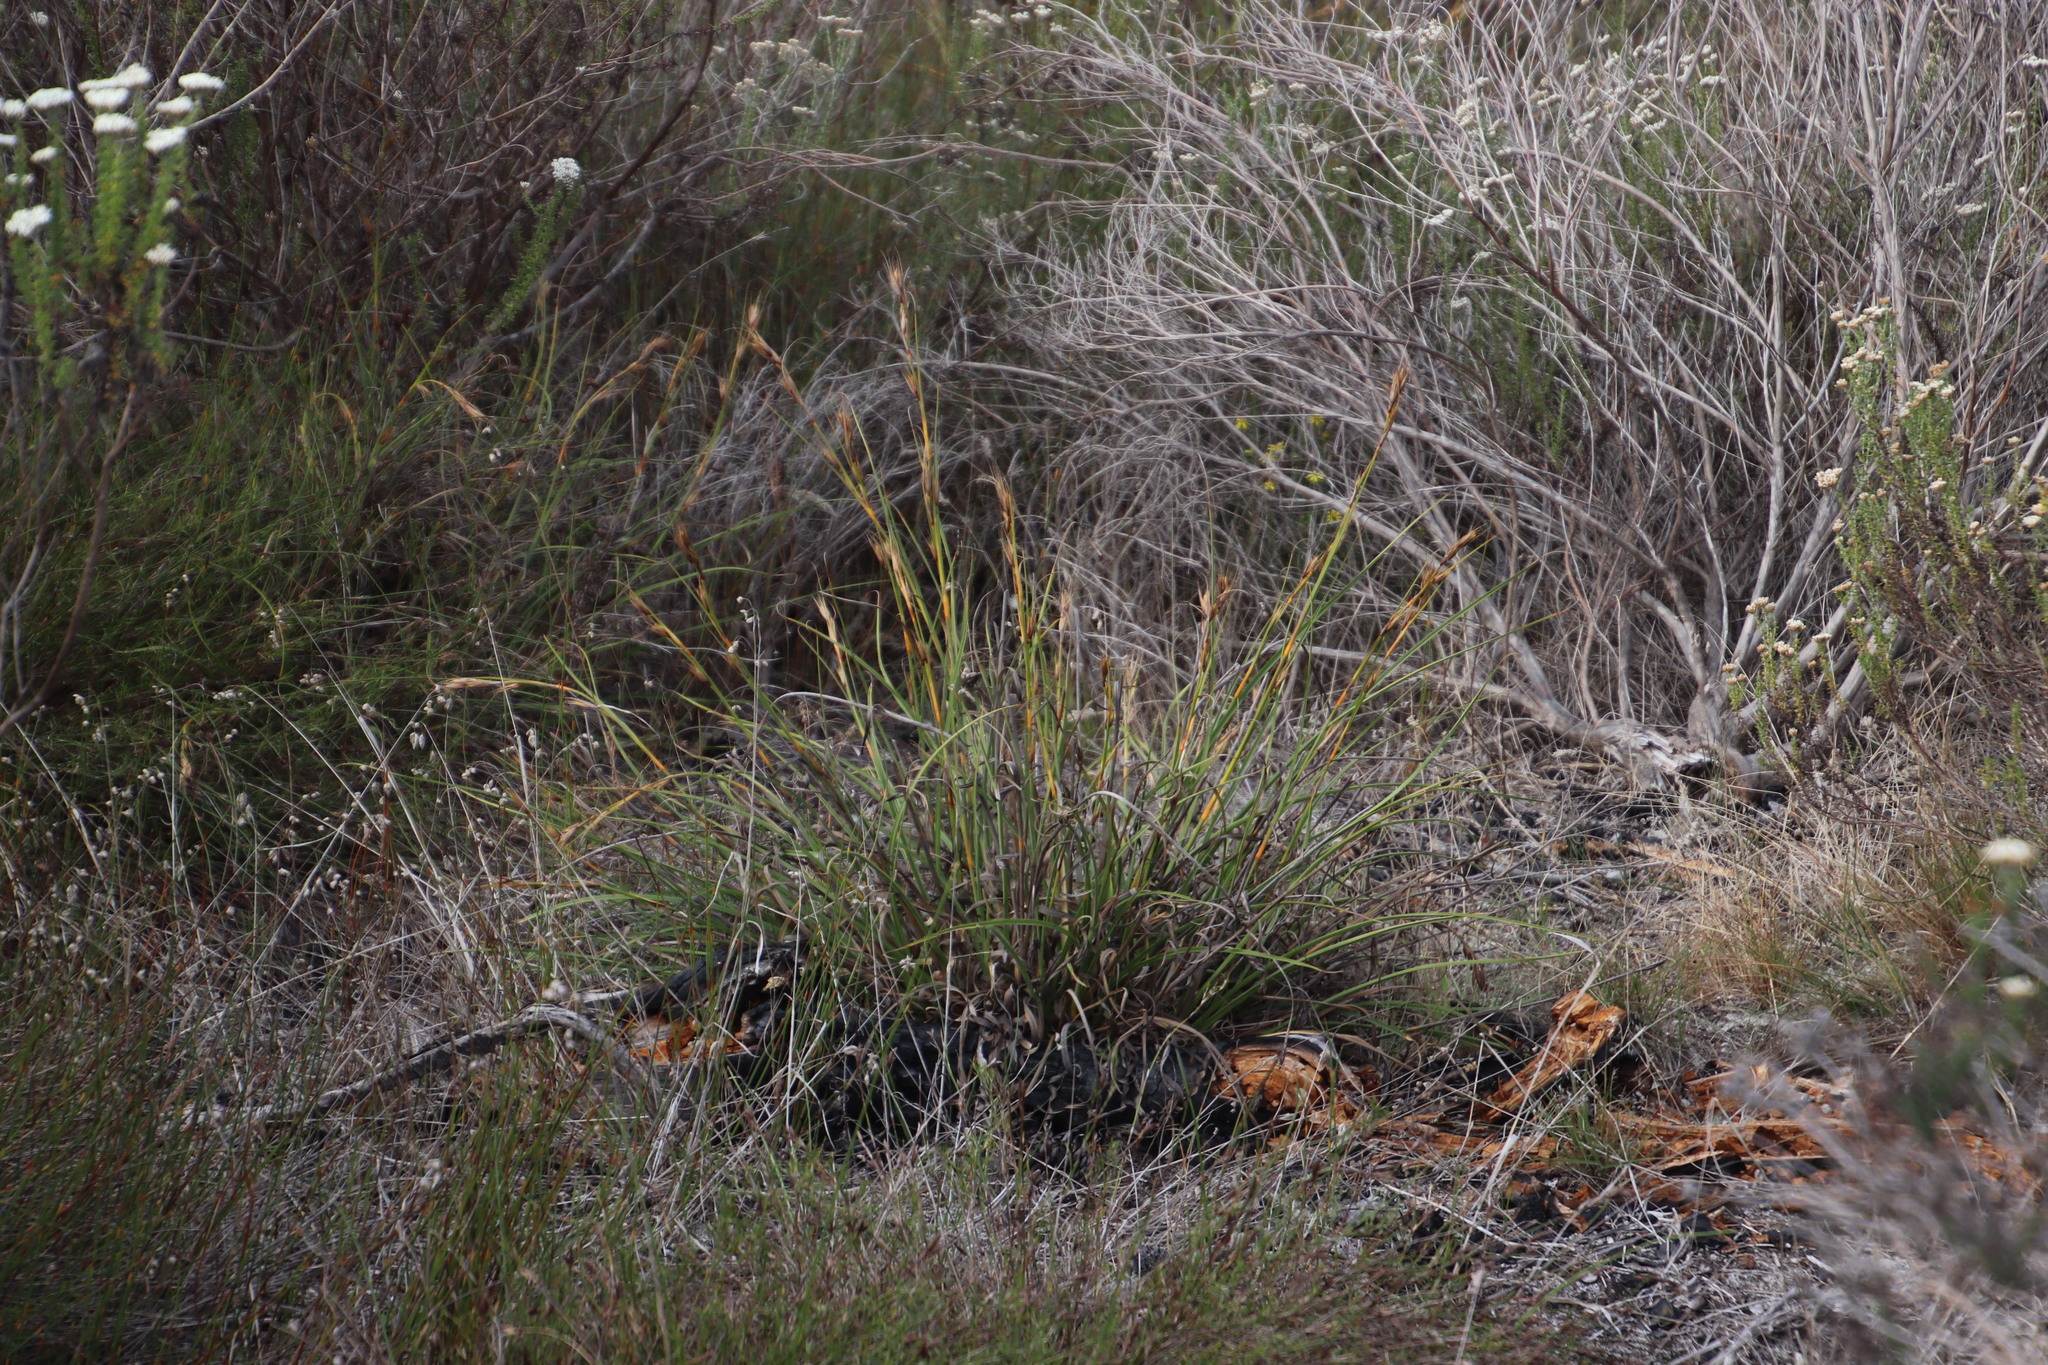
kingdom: Plantae
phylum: Tracheophyta
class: Liliopsida
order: Poales
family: Cyperaceae
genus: Tetraria
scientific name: Tetraria eximia
